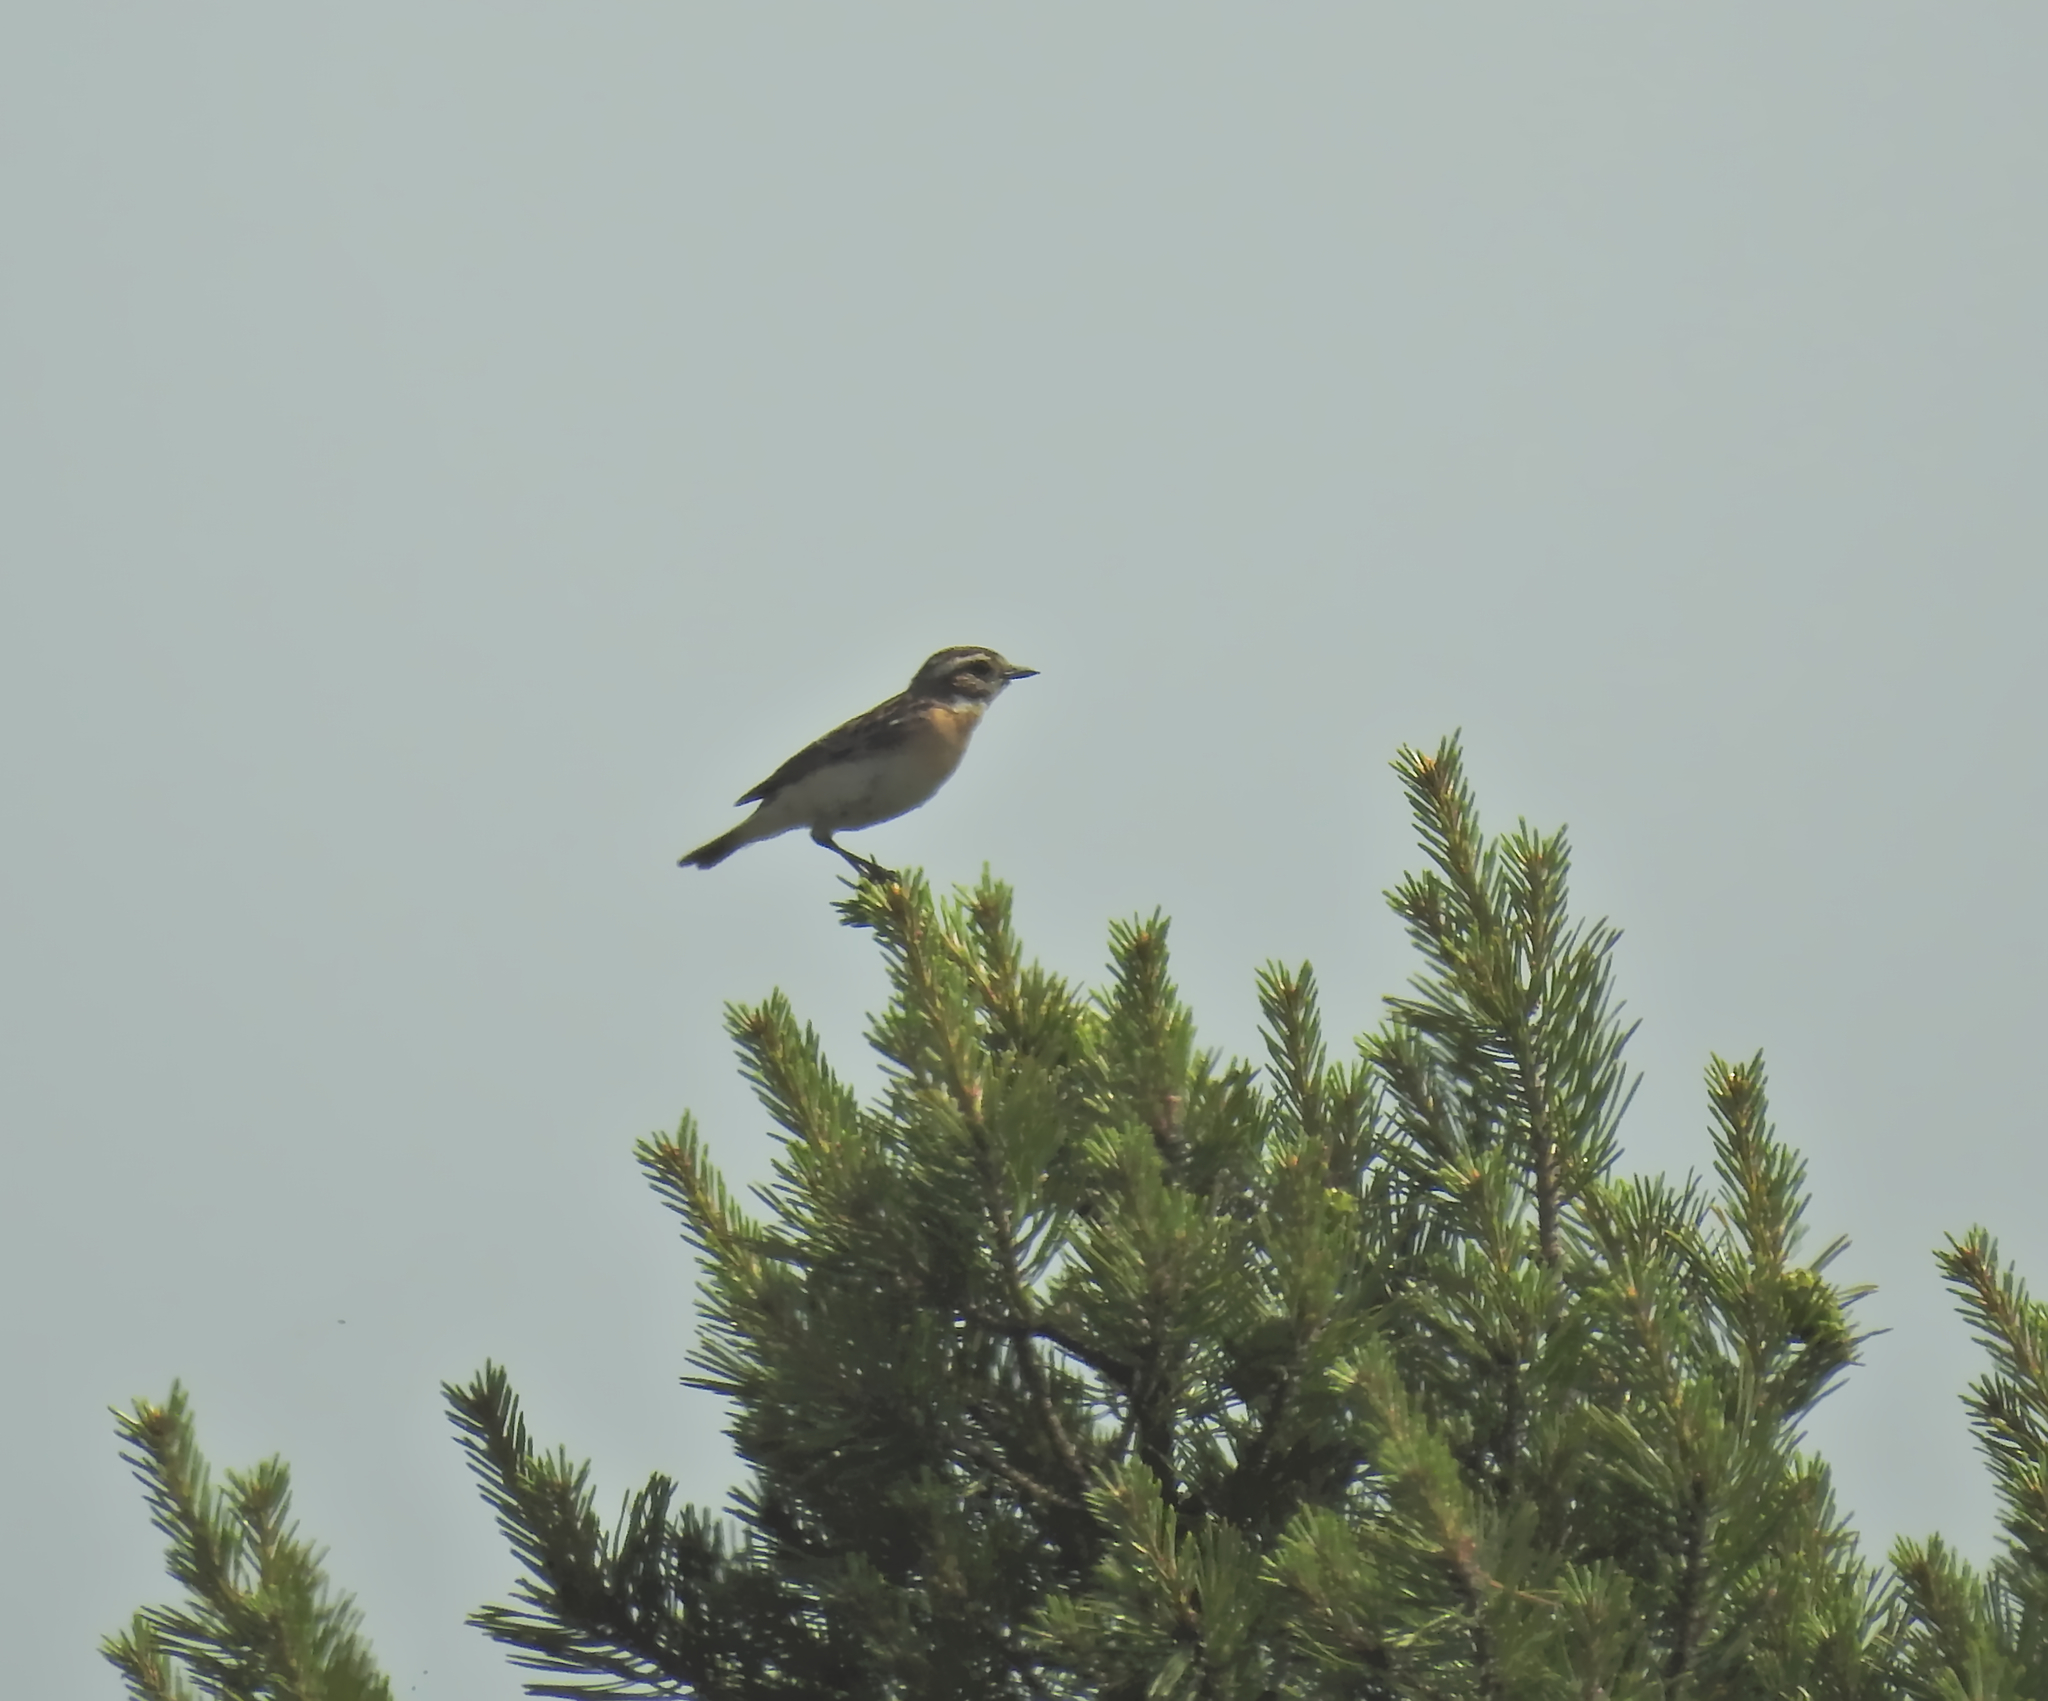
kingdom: Animalia
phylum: Chordata
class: Aves
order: Passeriformes
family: Muscicapidae
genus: Saxicola
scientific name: Saxicola rubetra
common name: Whinchat
